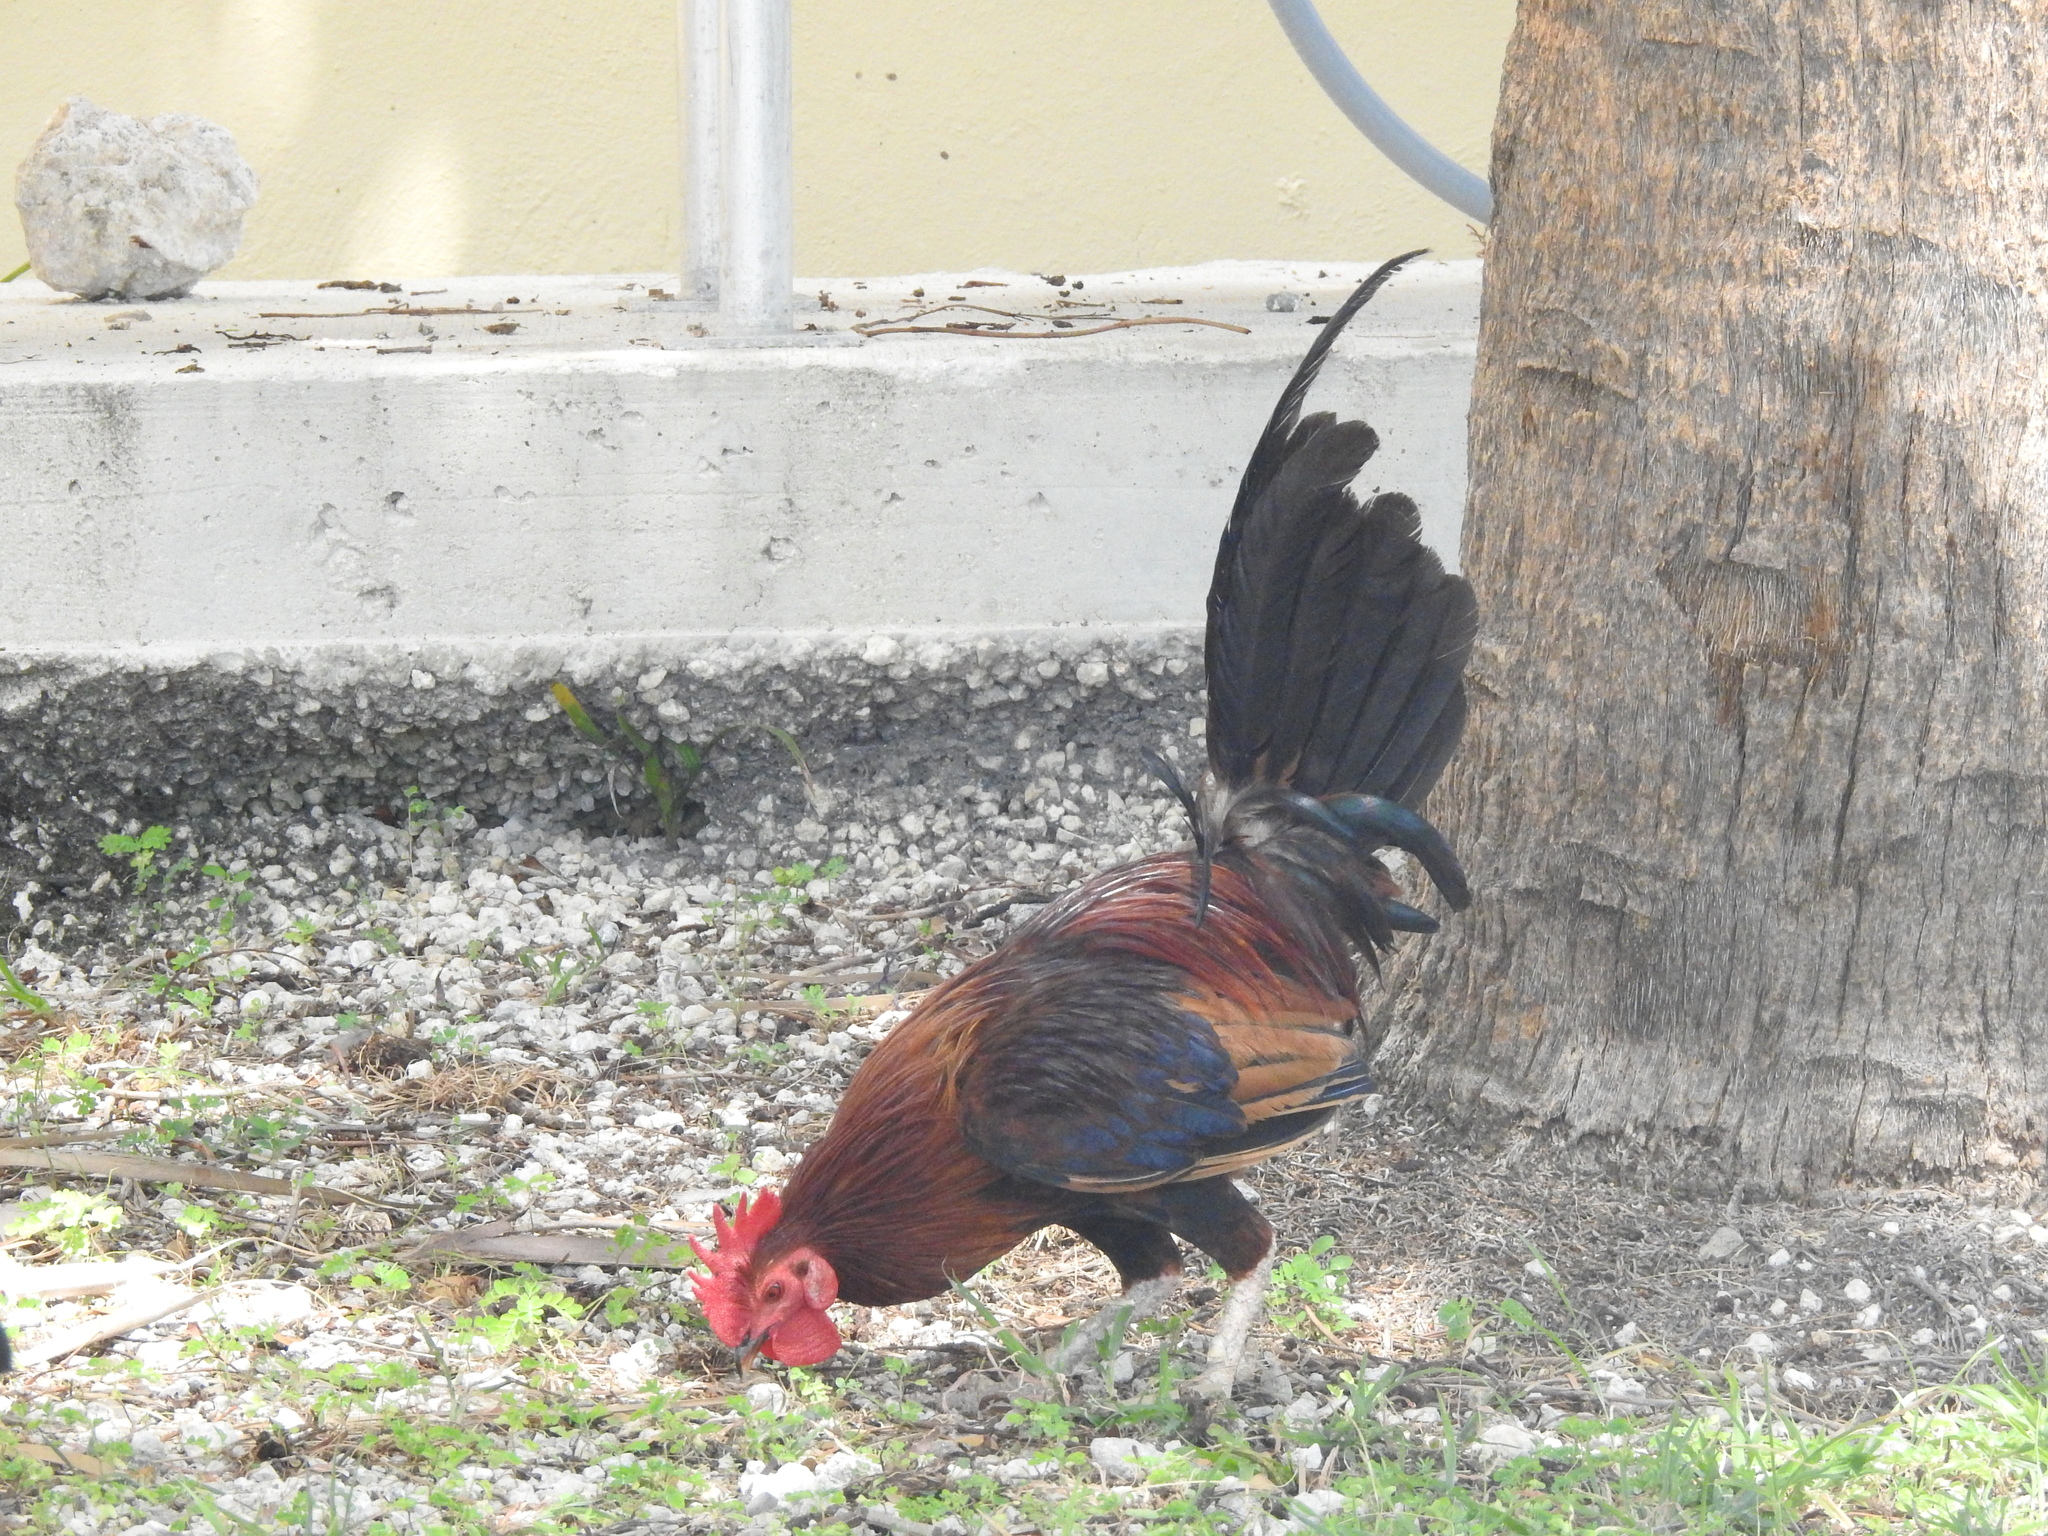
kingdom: Animalia
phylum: Chordata
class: Aves
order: Galliformes
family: Phasianidae
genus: Gallus
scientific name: Gallus gallus
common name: Red junglefowl
